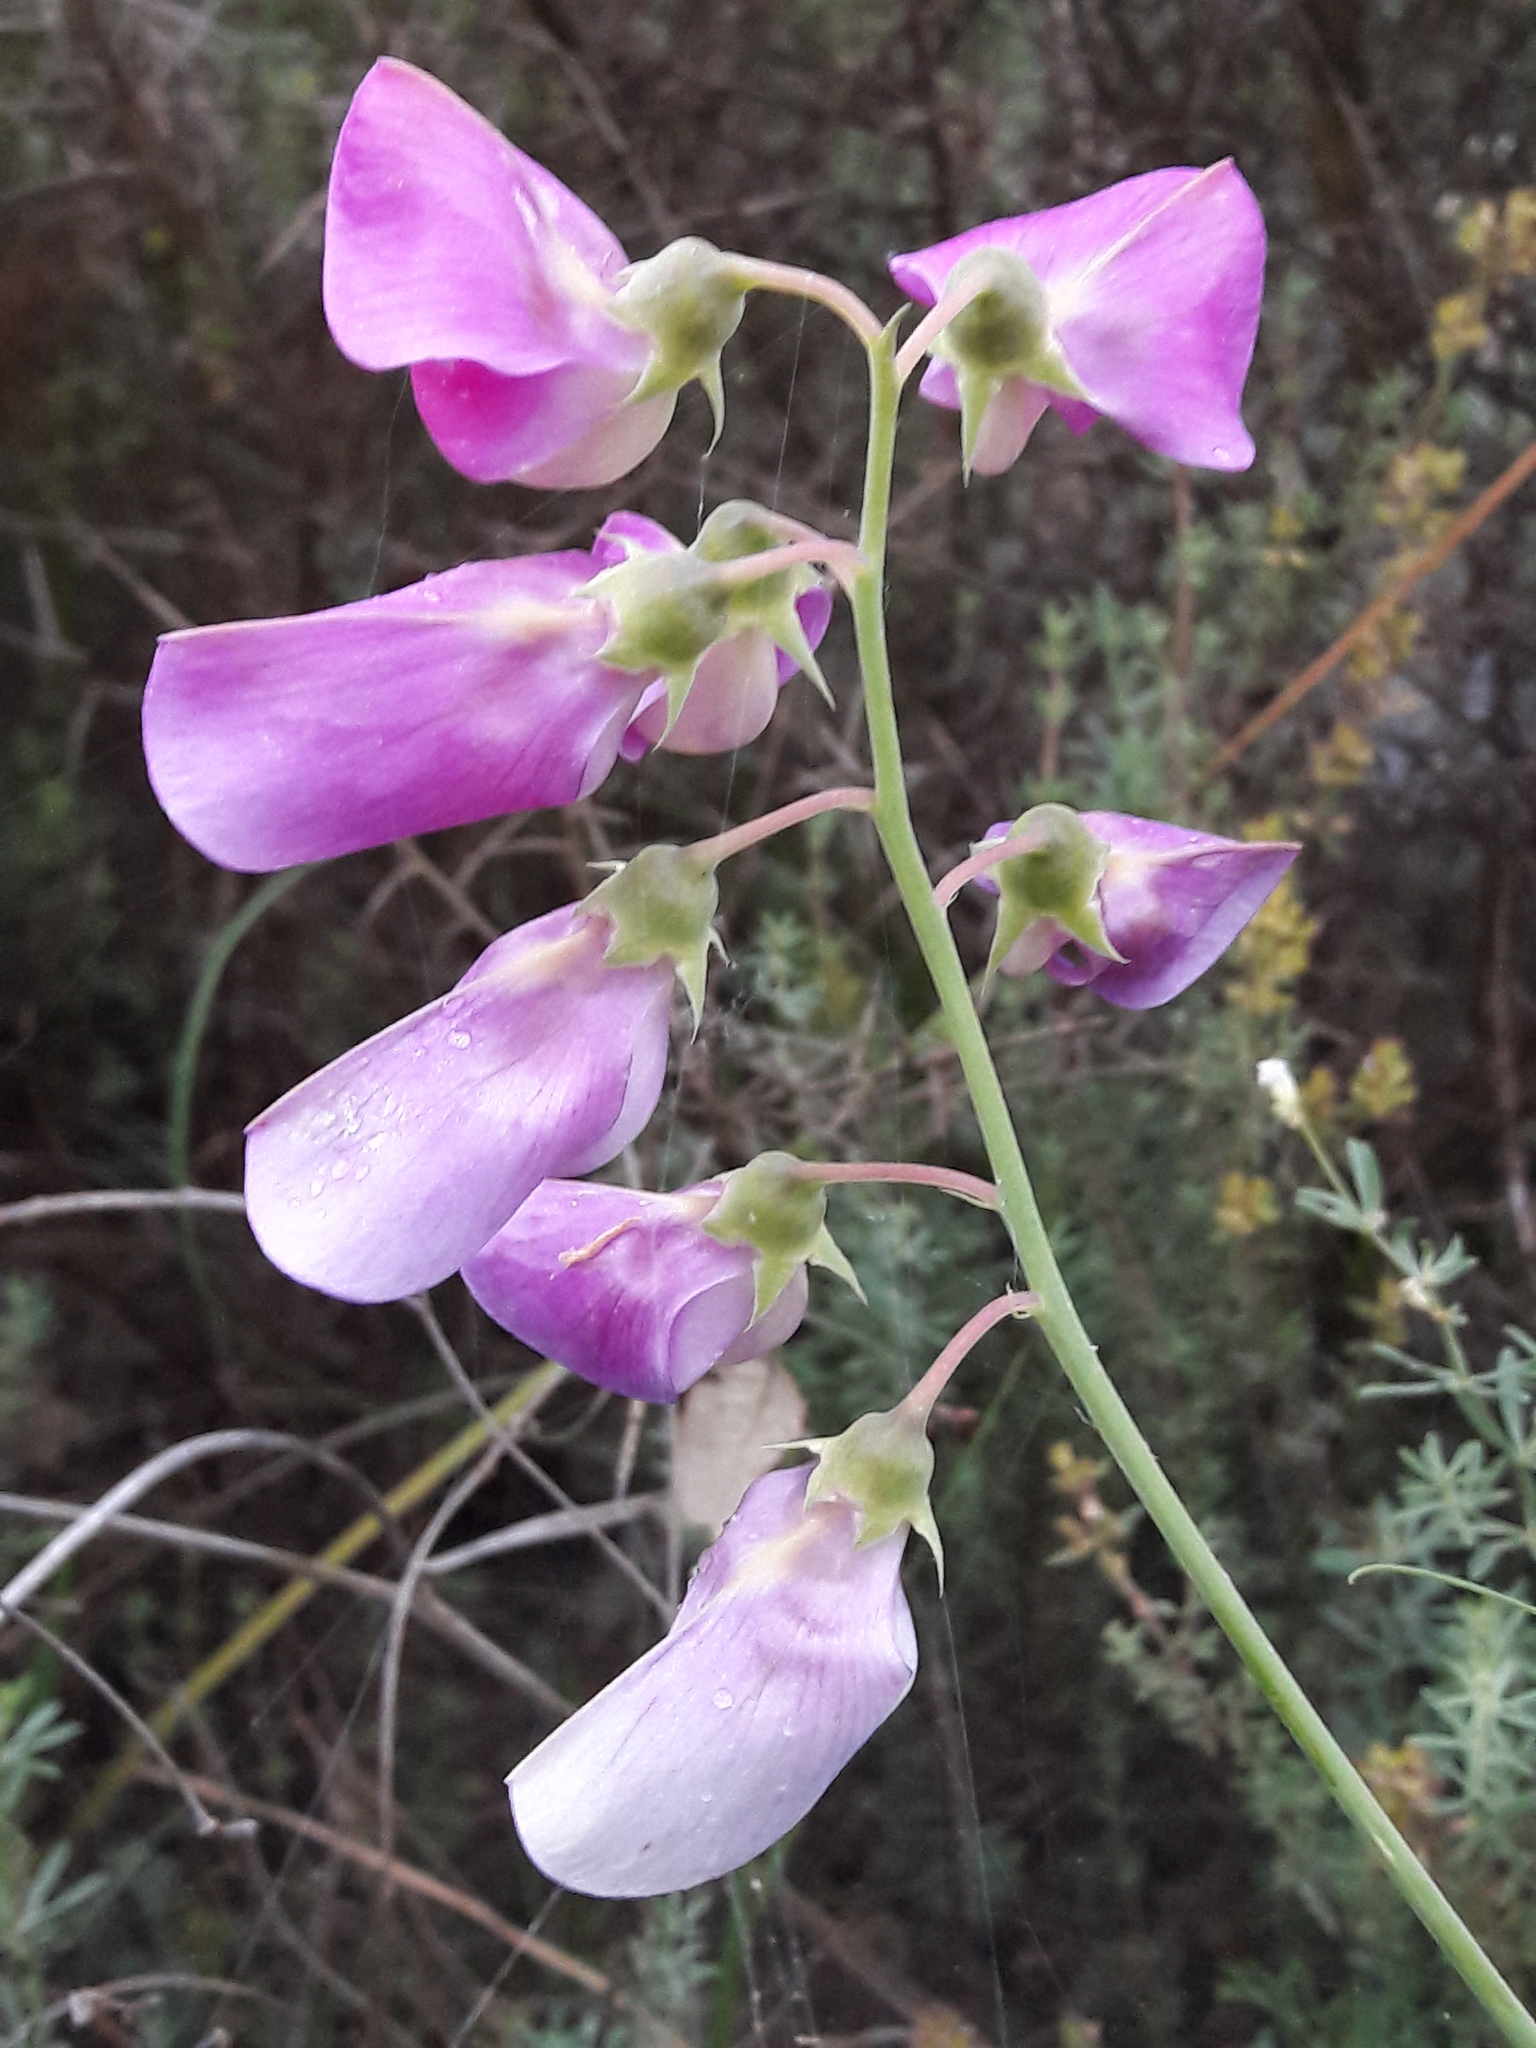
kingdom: Plantae
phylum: Tracheophyta
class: Magnoliopsida
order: Fabales
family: Fabaceae
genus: Lathyrus
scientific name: Lathyrus latifolius
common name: Perennial pea
